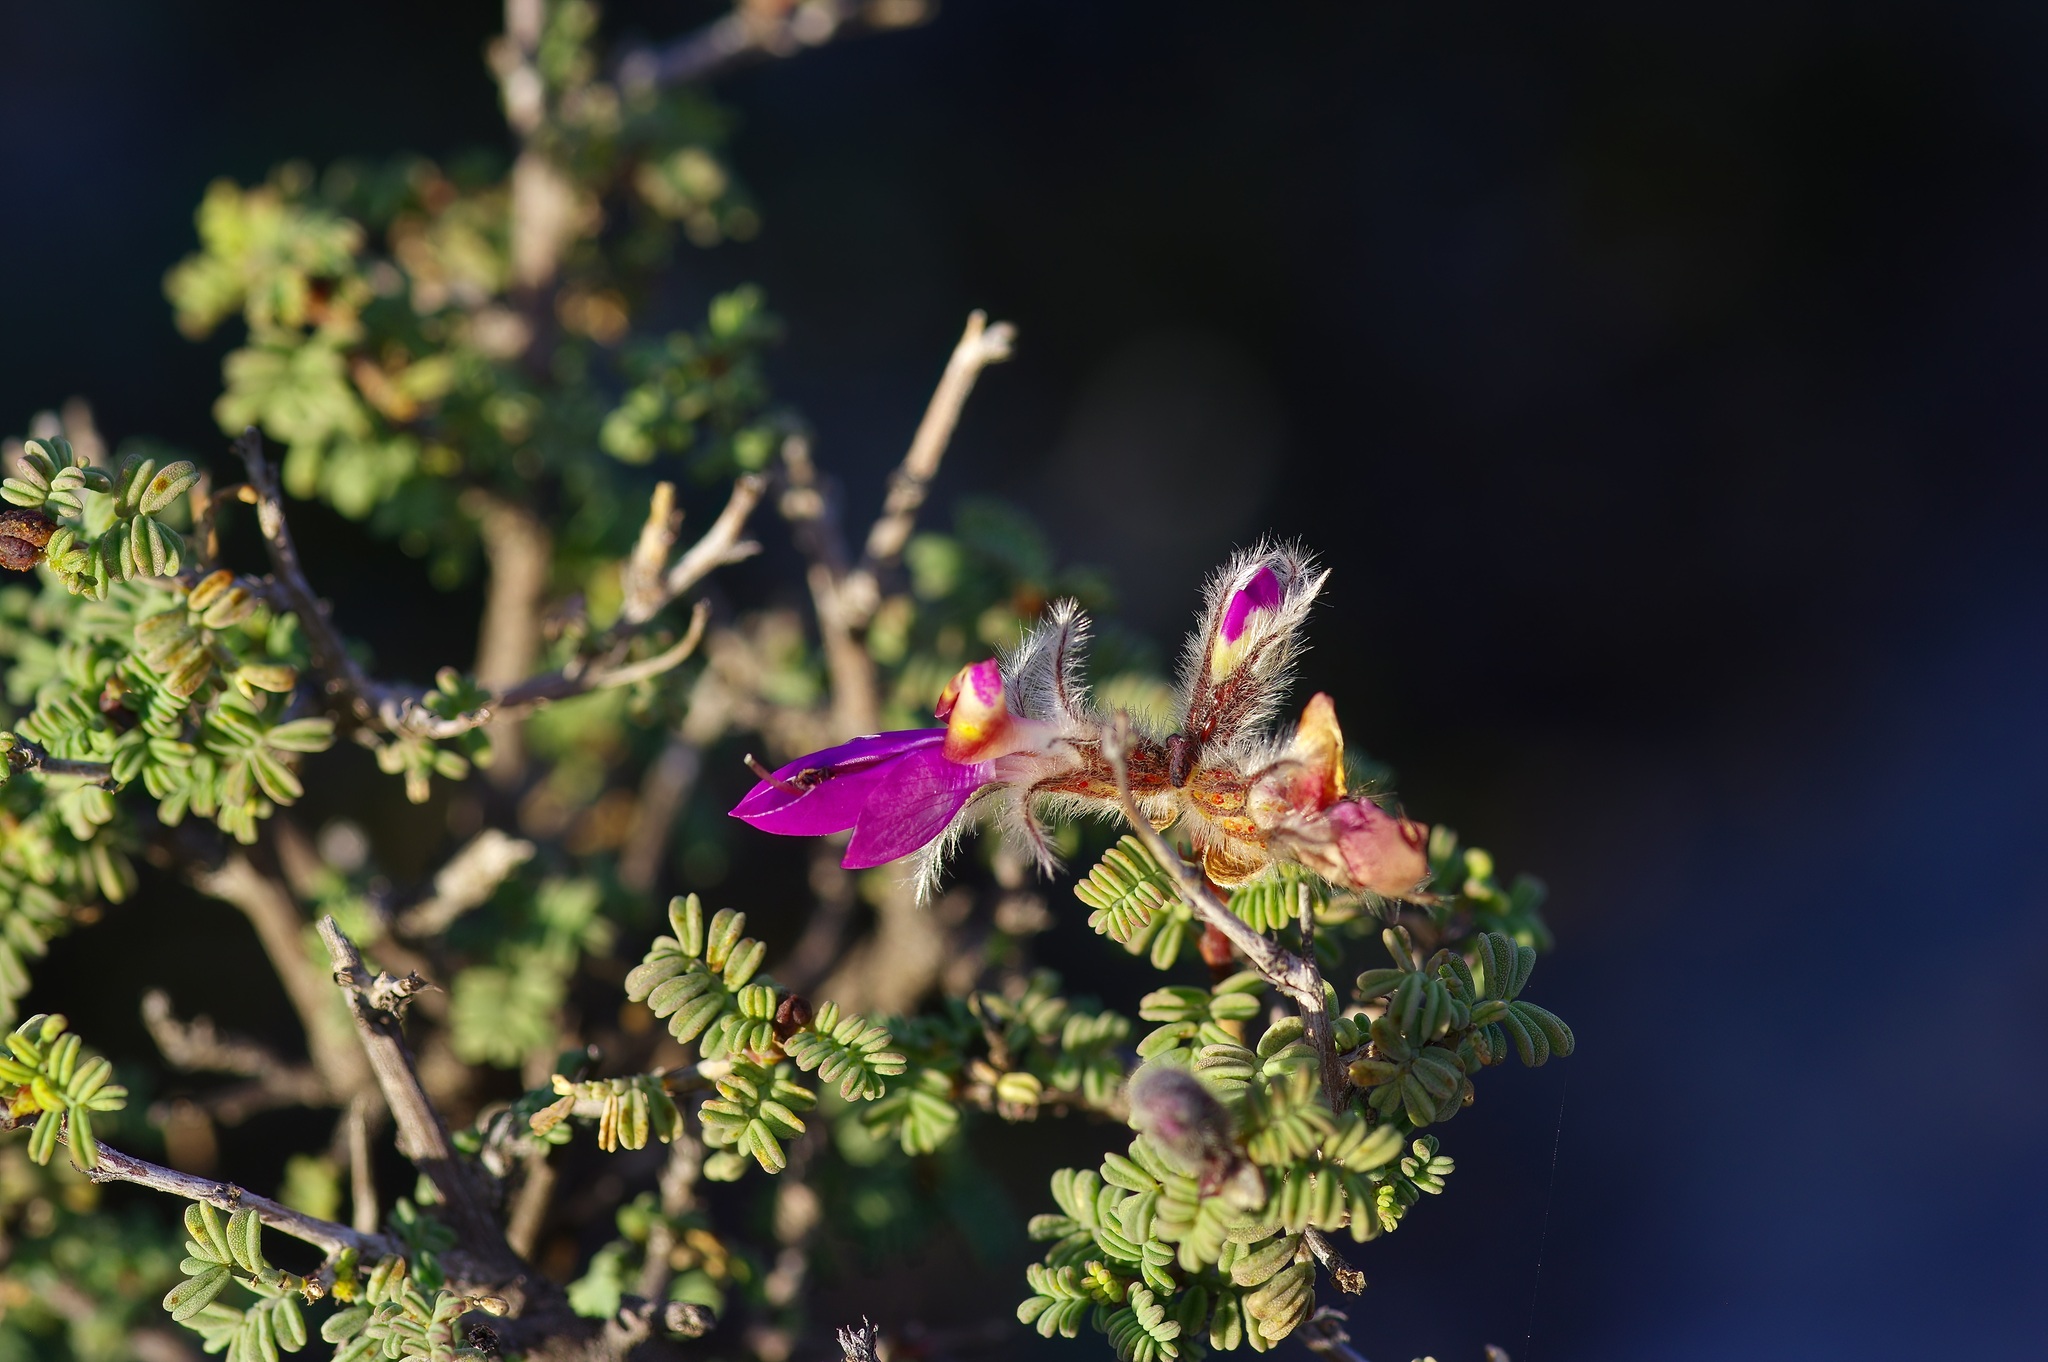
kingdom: Plantae
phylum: Tracheophyta
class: Magnoliopsida
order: Fabales
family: Fabaceae
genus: Dalea
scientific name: Dalea formosa
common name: Feather-plume dalea
